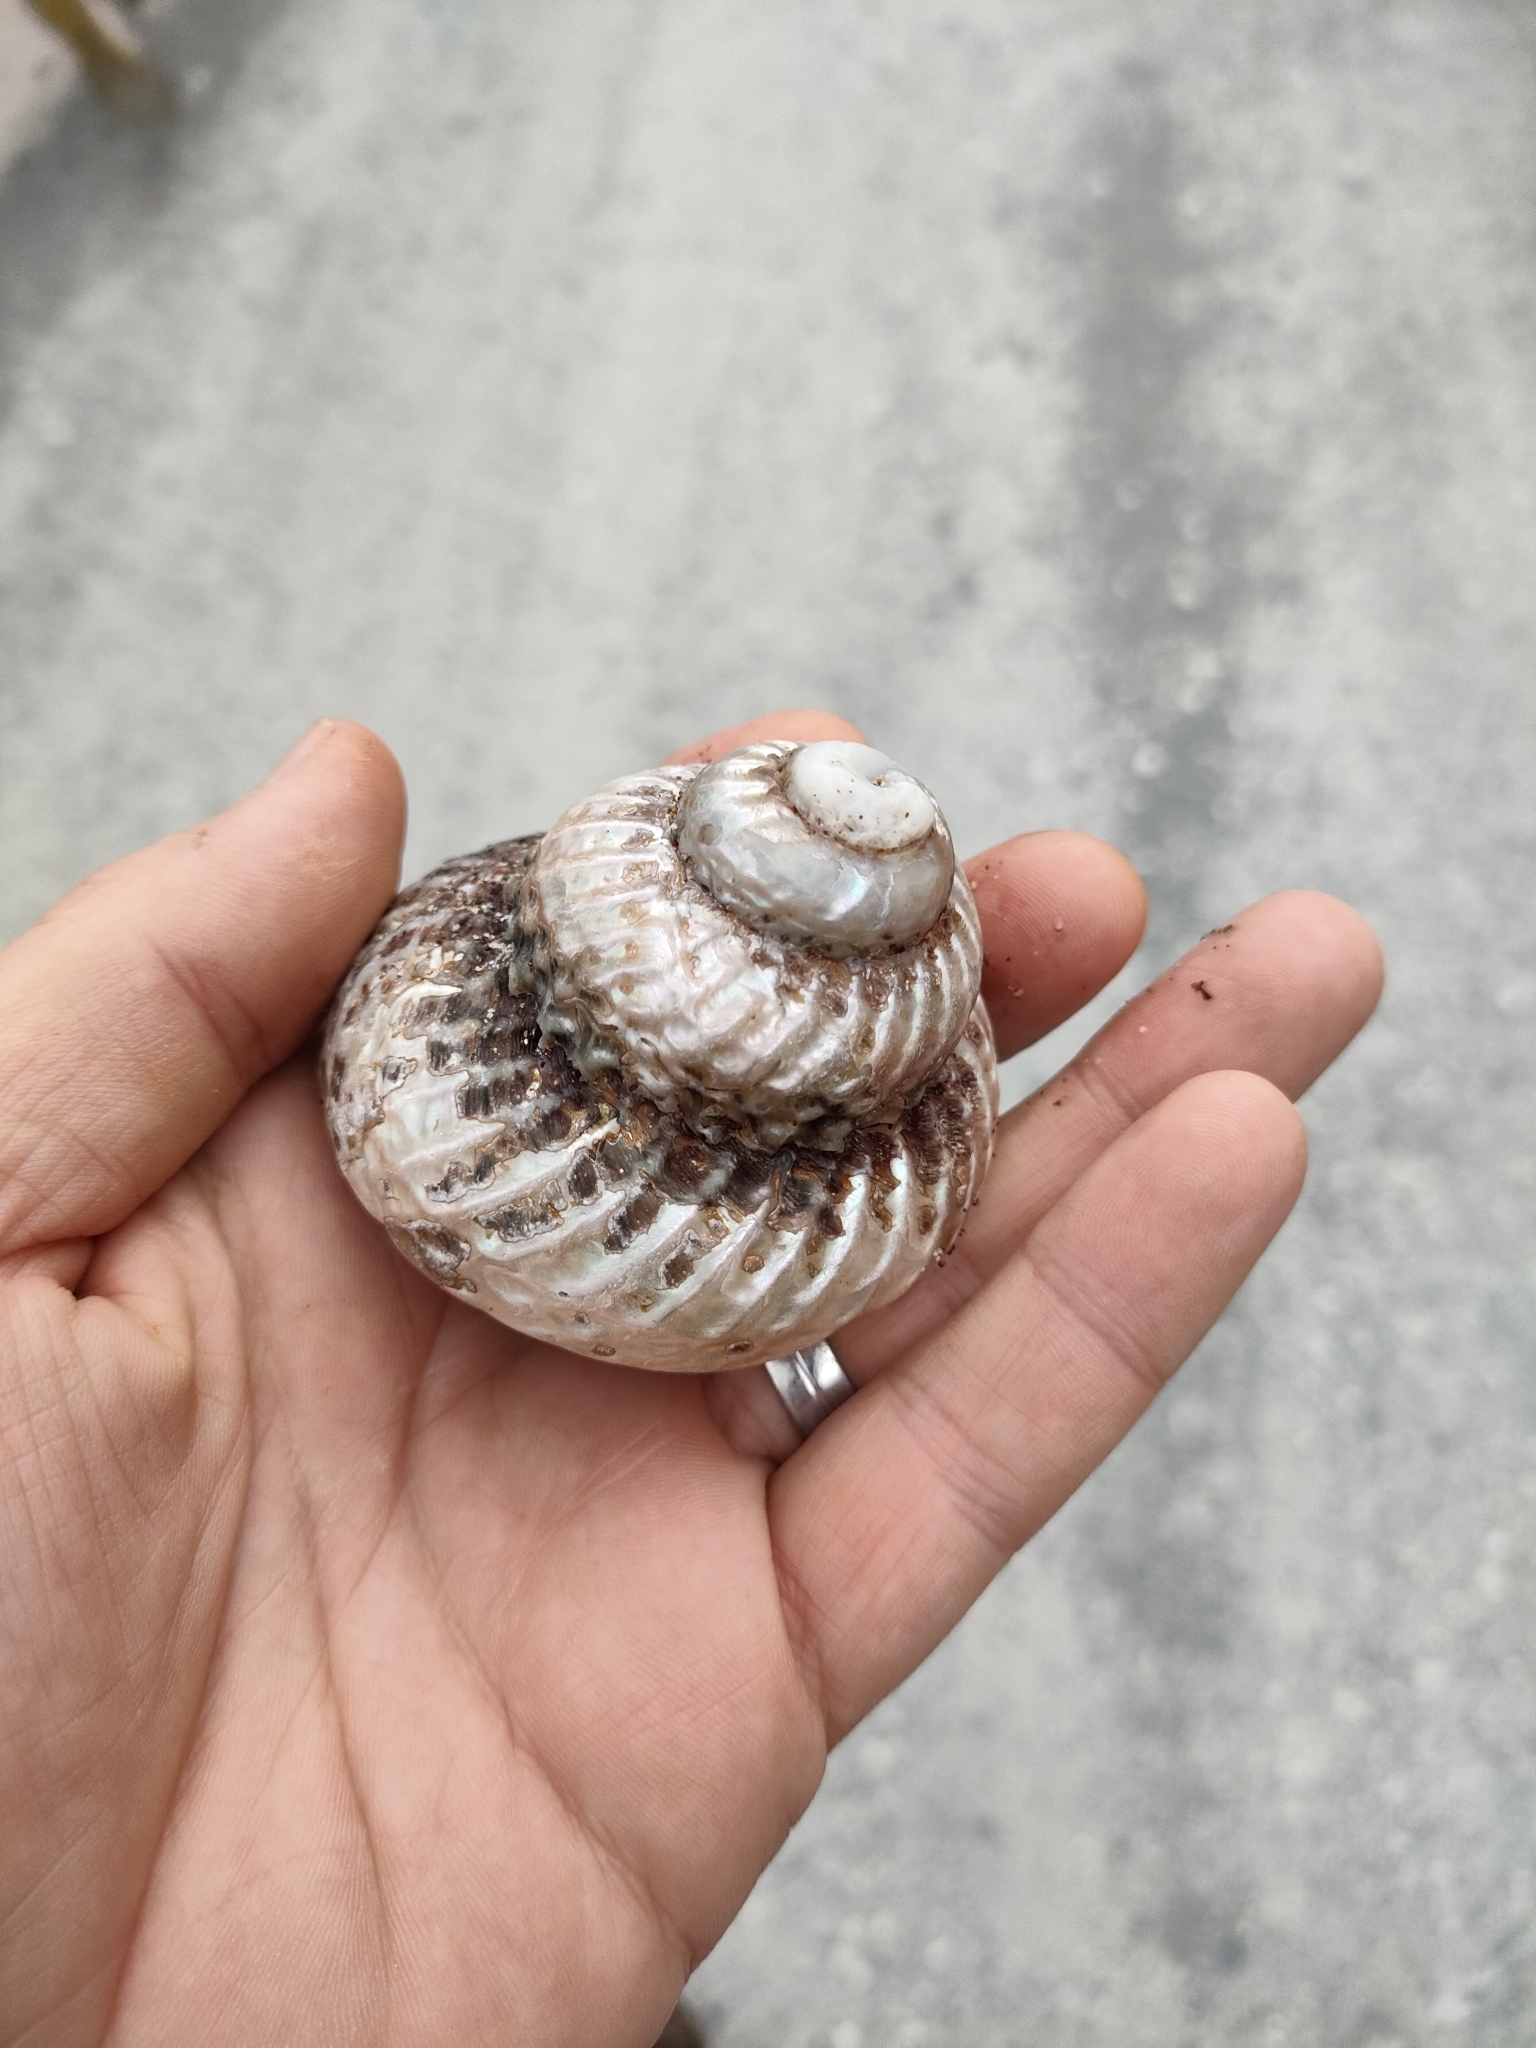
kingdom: Animalia
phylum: Mollusca
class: Gastropoda
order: Trochida
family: Turbinidae
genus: Cookia
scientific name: Cookia sulcata
